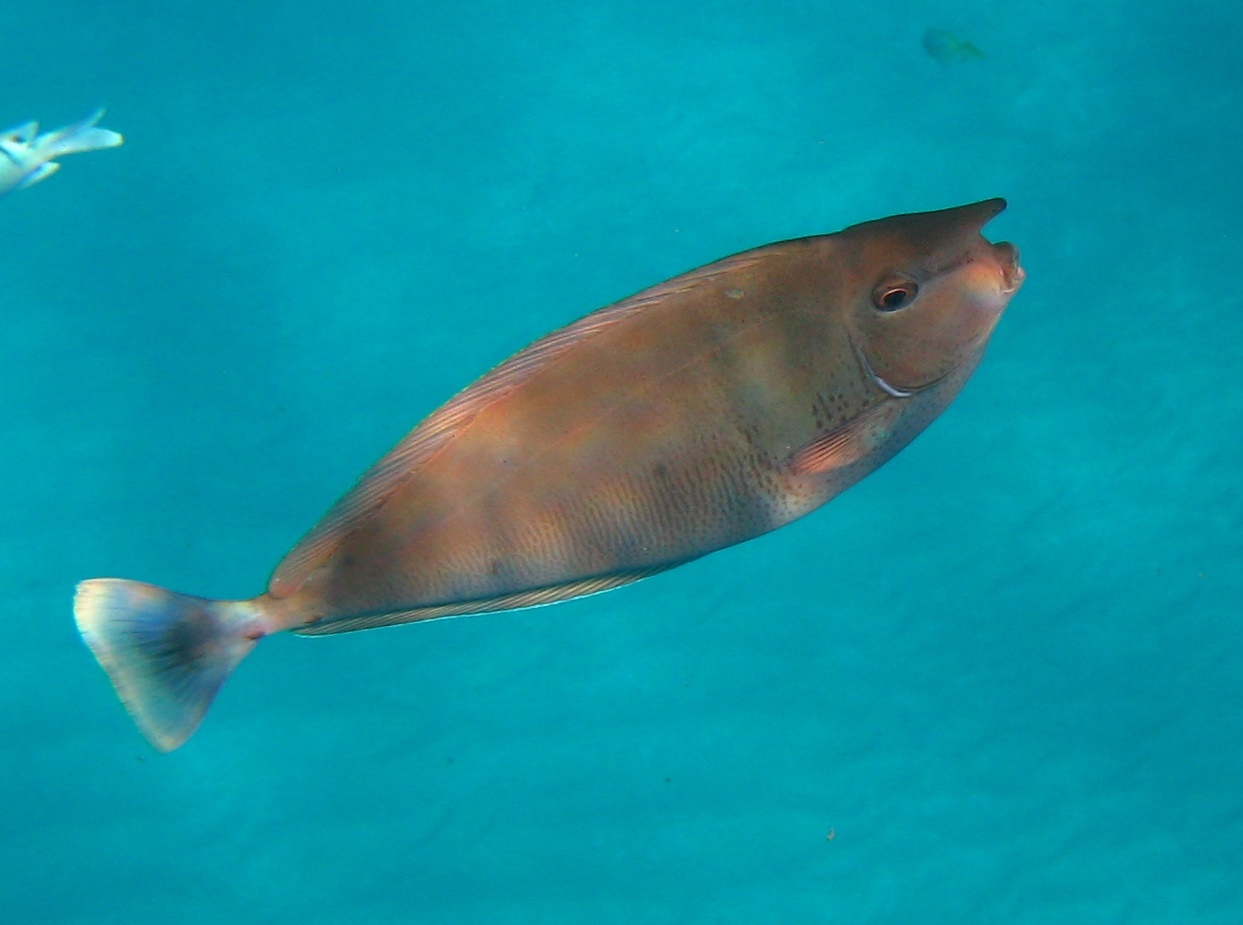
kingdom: Animalia
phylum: Chordata
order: Perciformes
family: Acanthuridae
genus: Naso
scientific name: Naso brevirostris
